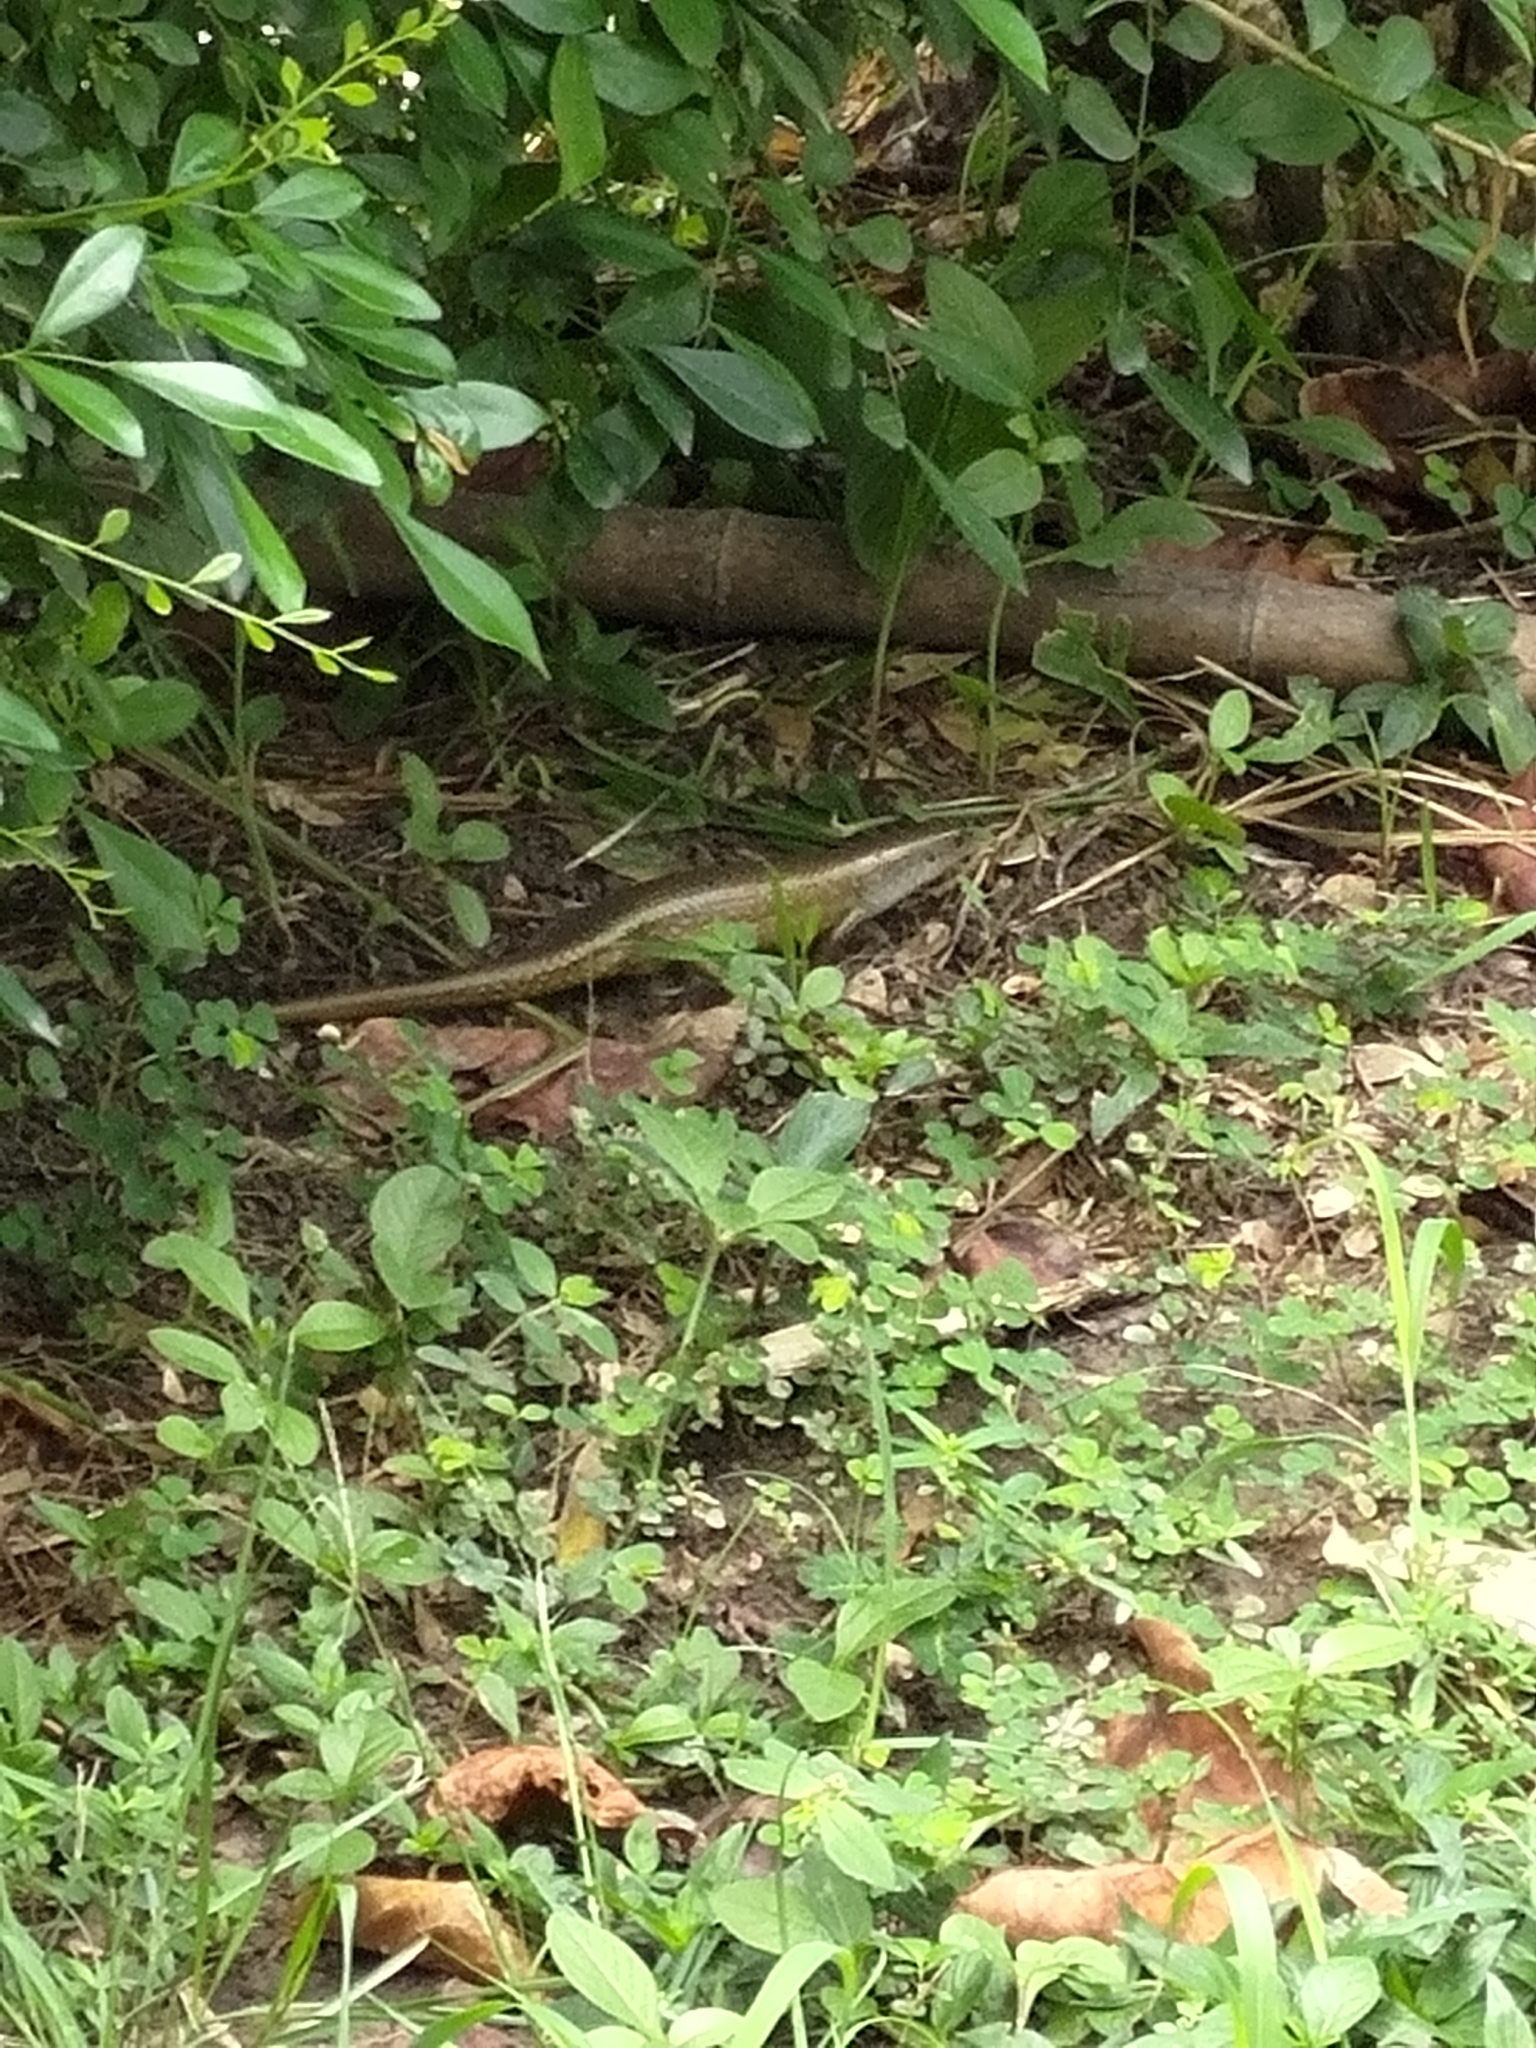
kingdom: Animalia
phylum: Chordata
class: Squamata
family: Scincidae
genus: Eutropis
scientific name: Eutropis multifasciata
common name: Common mabuya
